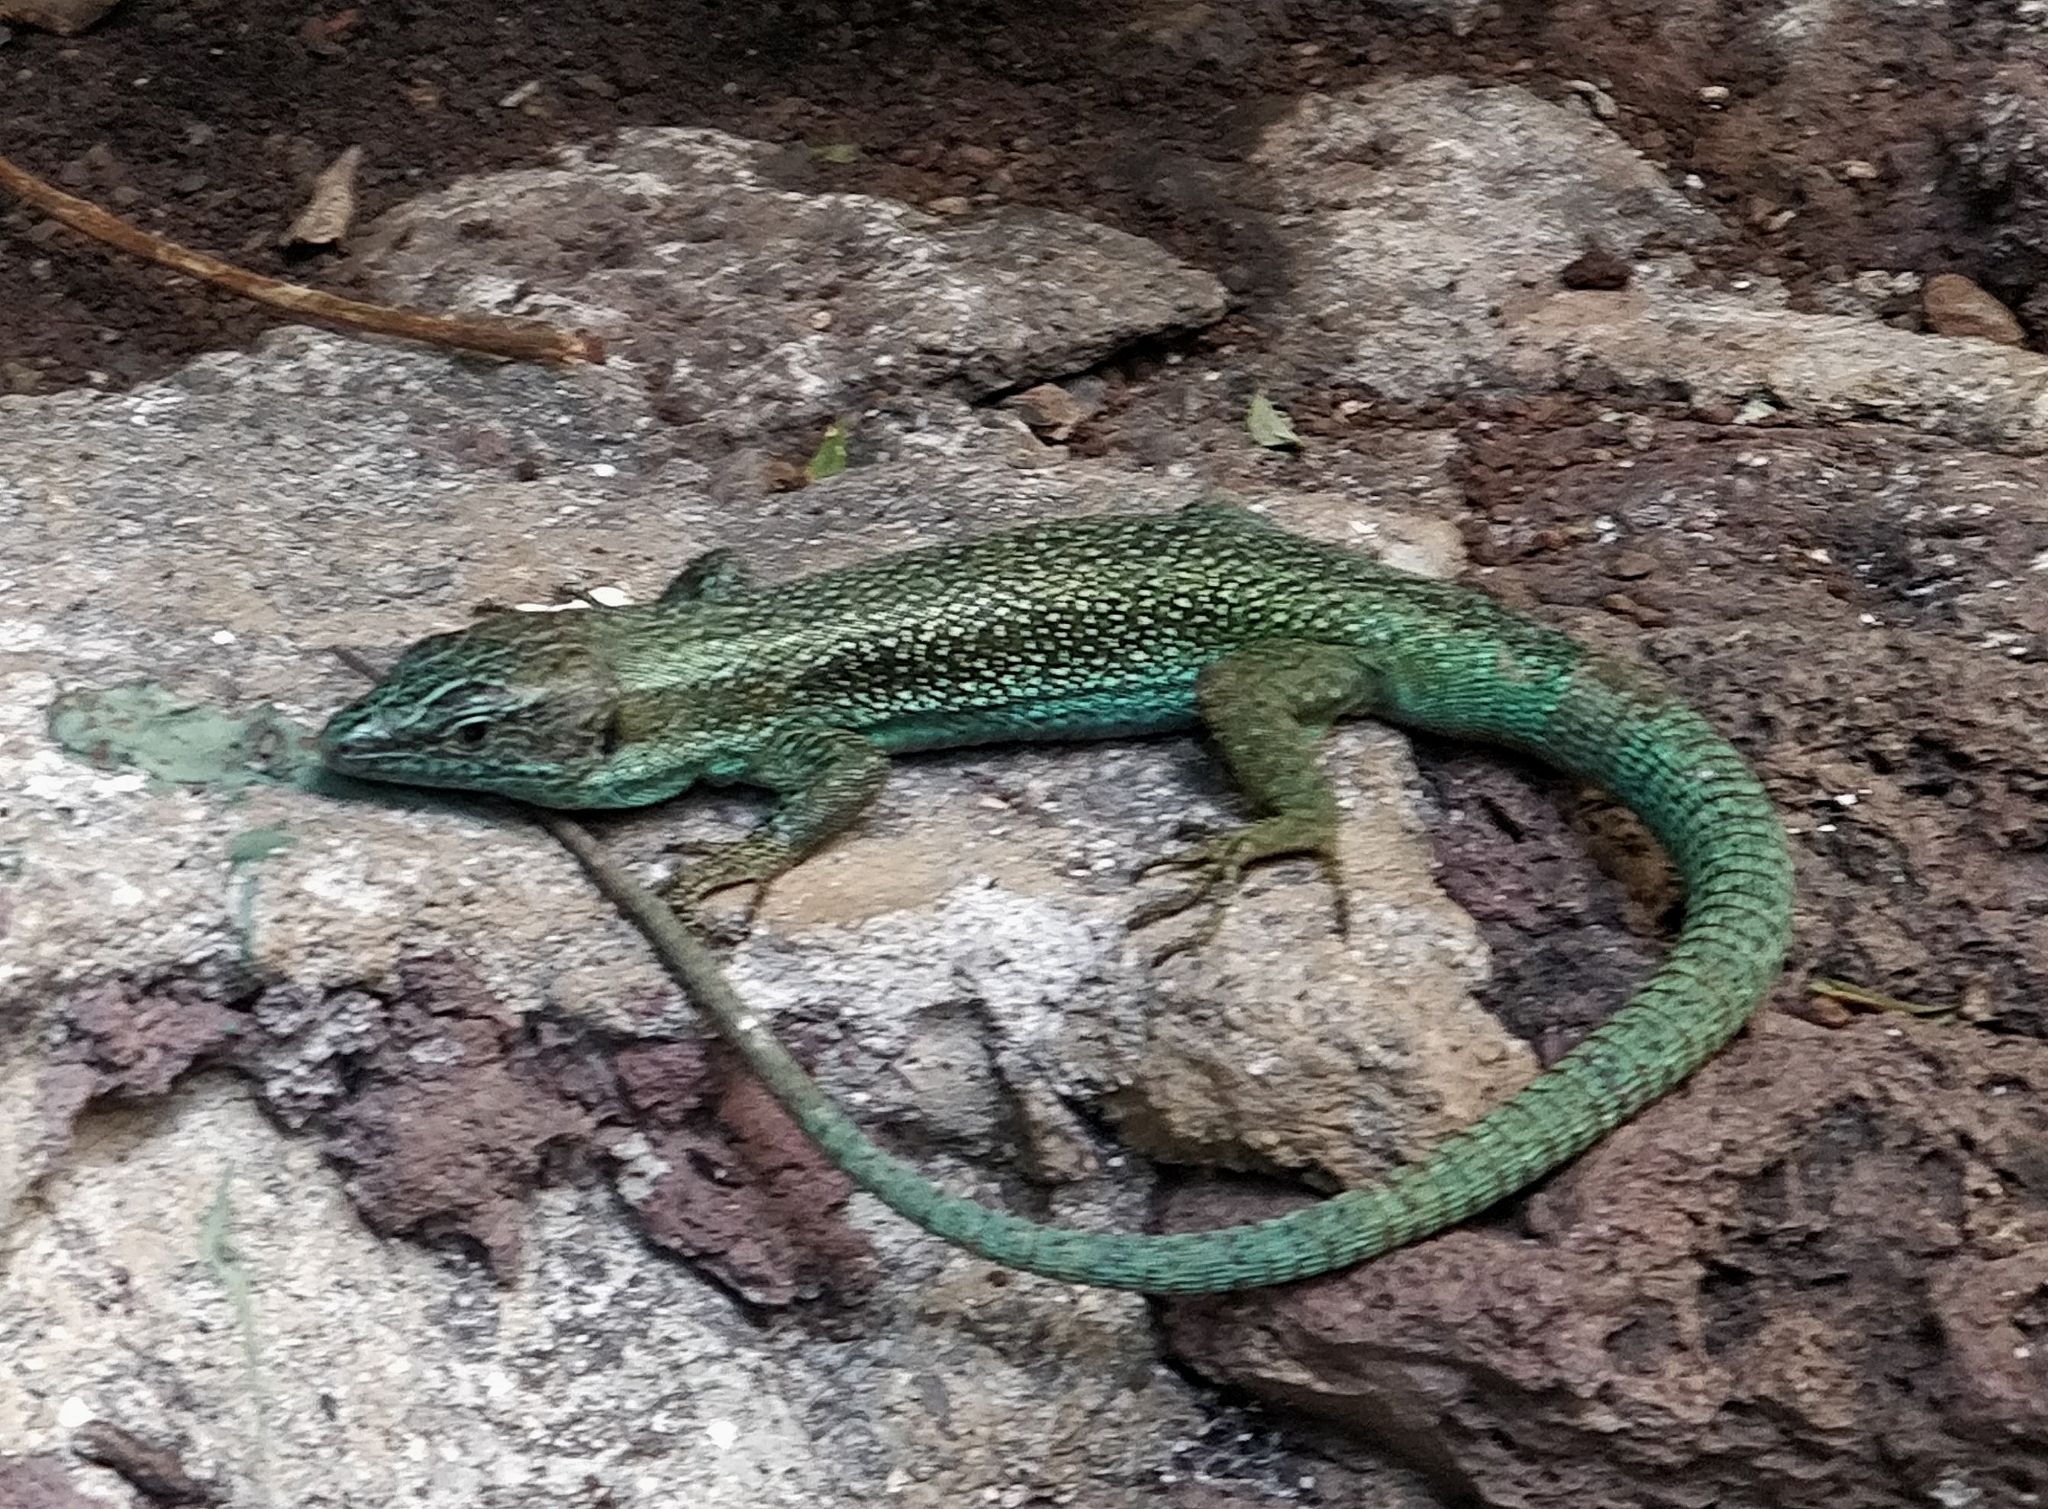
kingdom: Animalia
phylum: Chordata
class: Squamata
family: Lacertidae
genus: Teira
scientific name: Teira dugesii
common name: Madeira lizard
